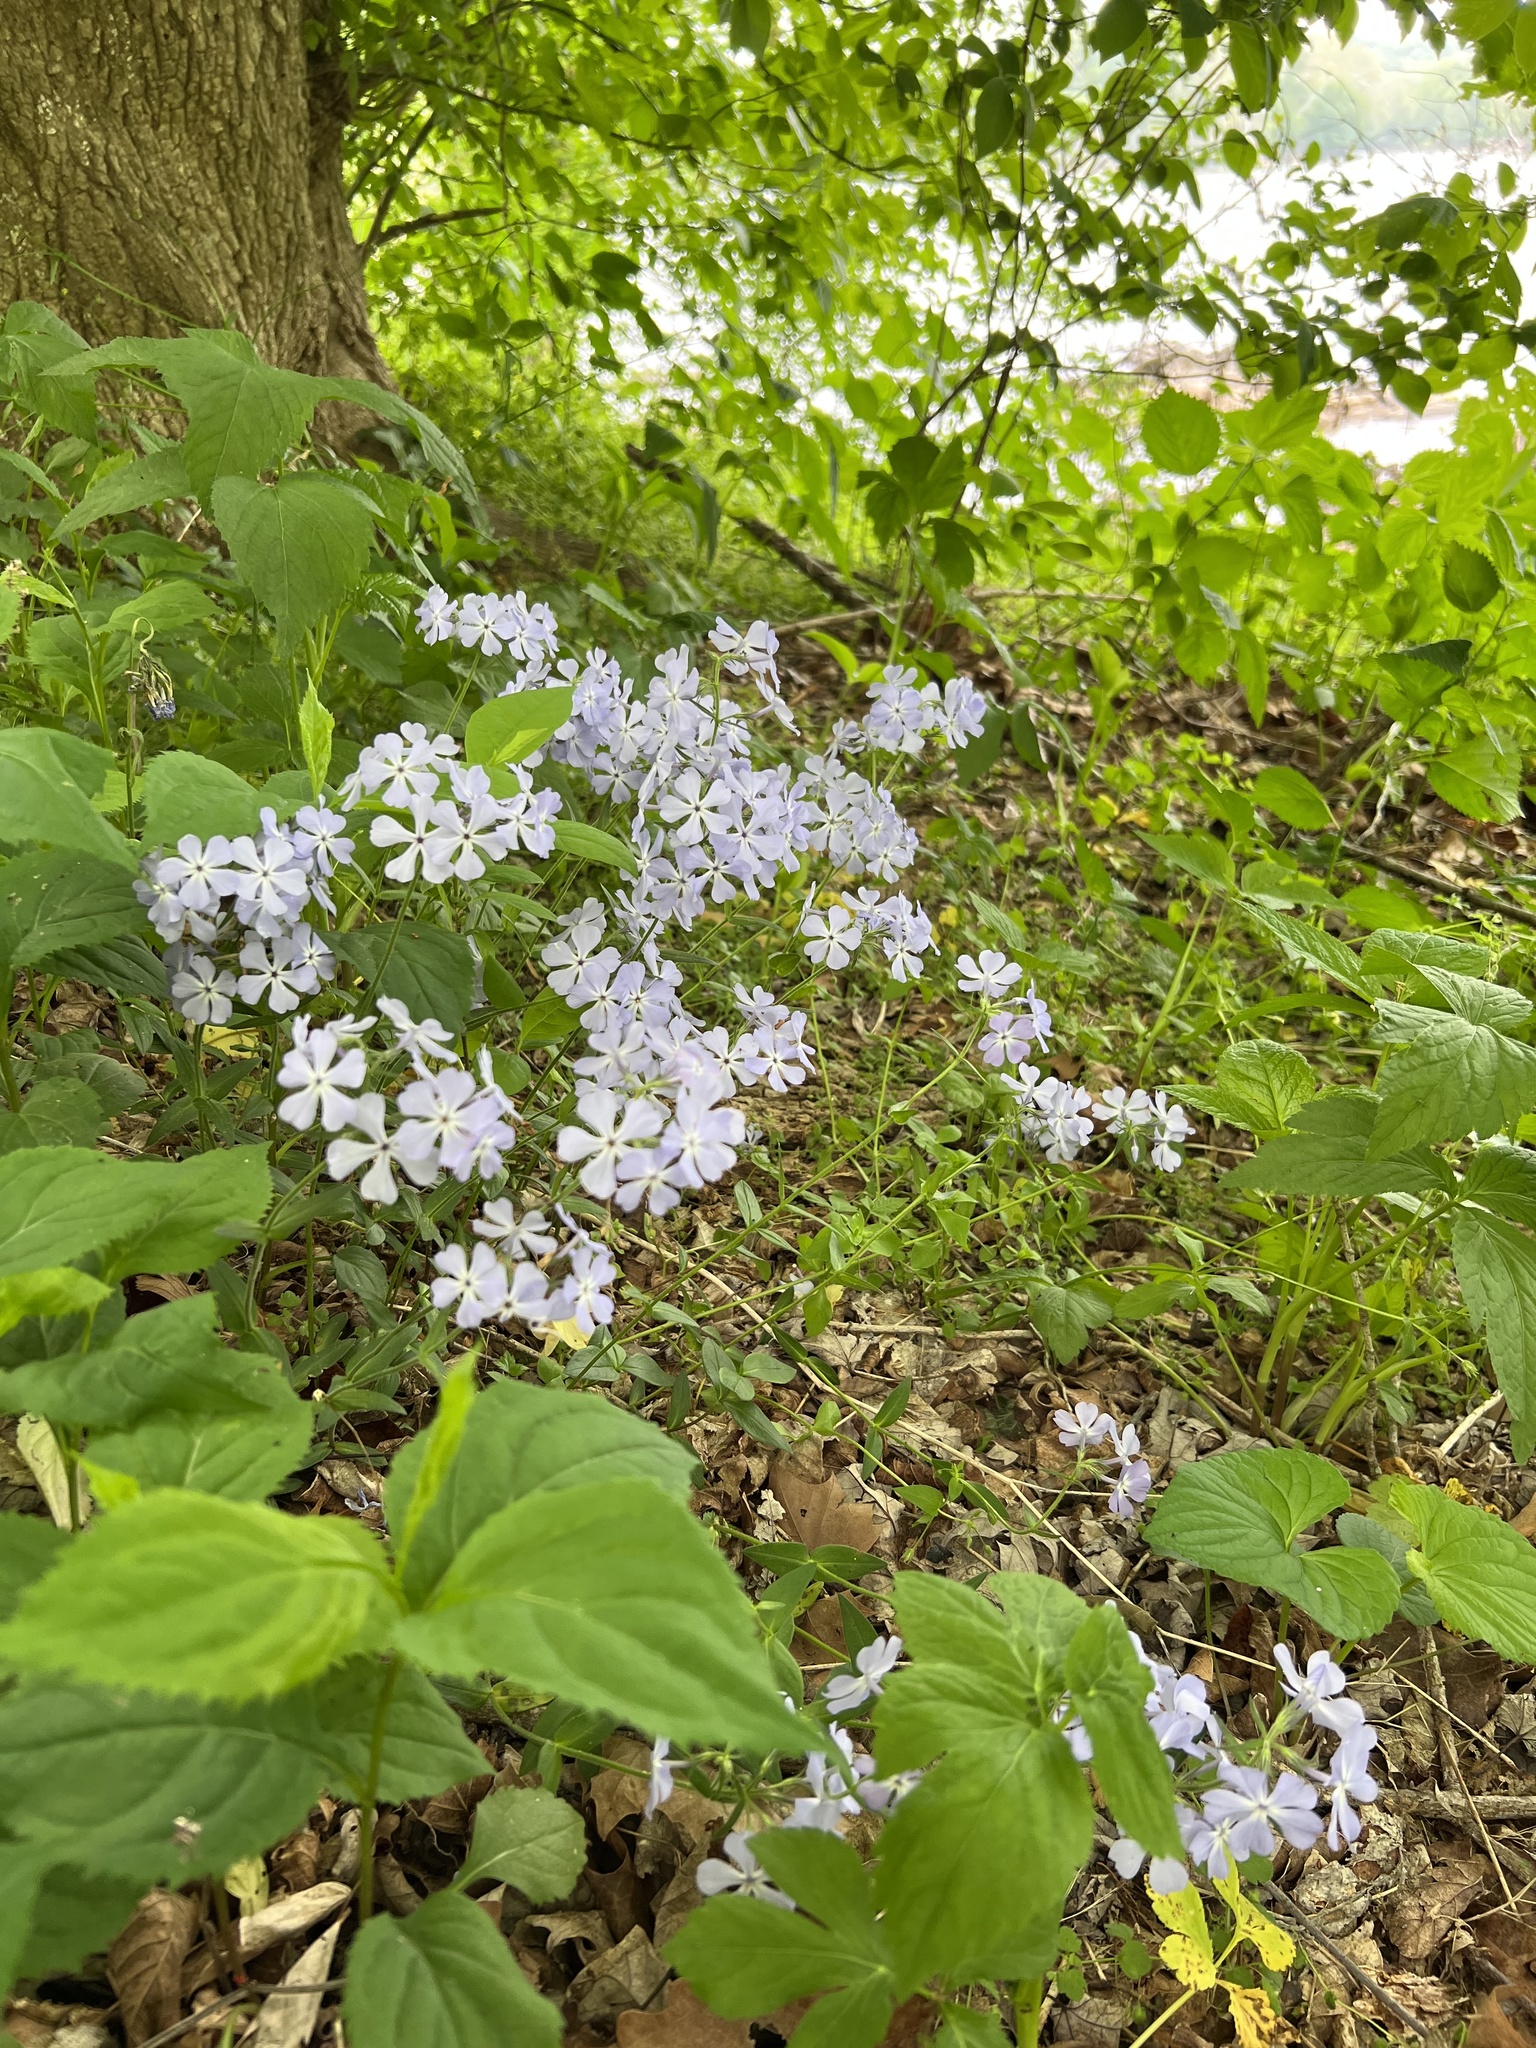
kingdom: Plantae
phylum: Tracheophyta
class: Magnoliopsida
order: Ericales
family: Polemoniaceae
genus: Phlox
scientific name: Phlox divaricata
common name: Blue phlox
